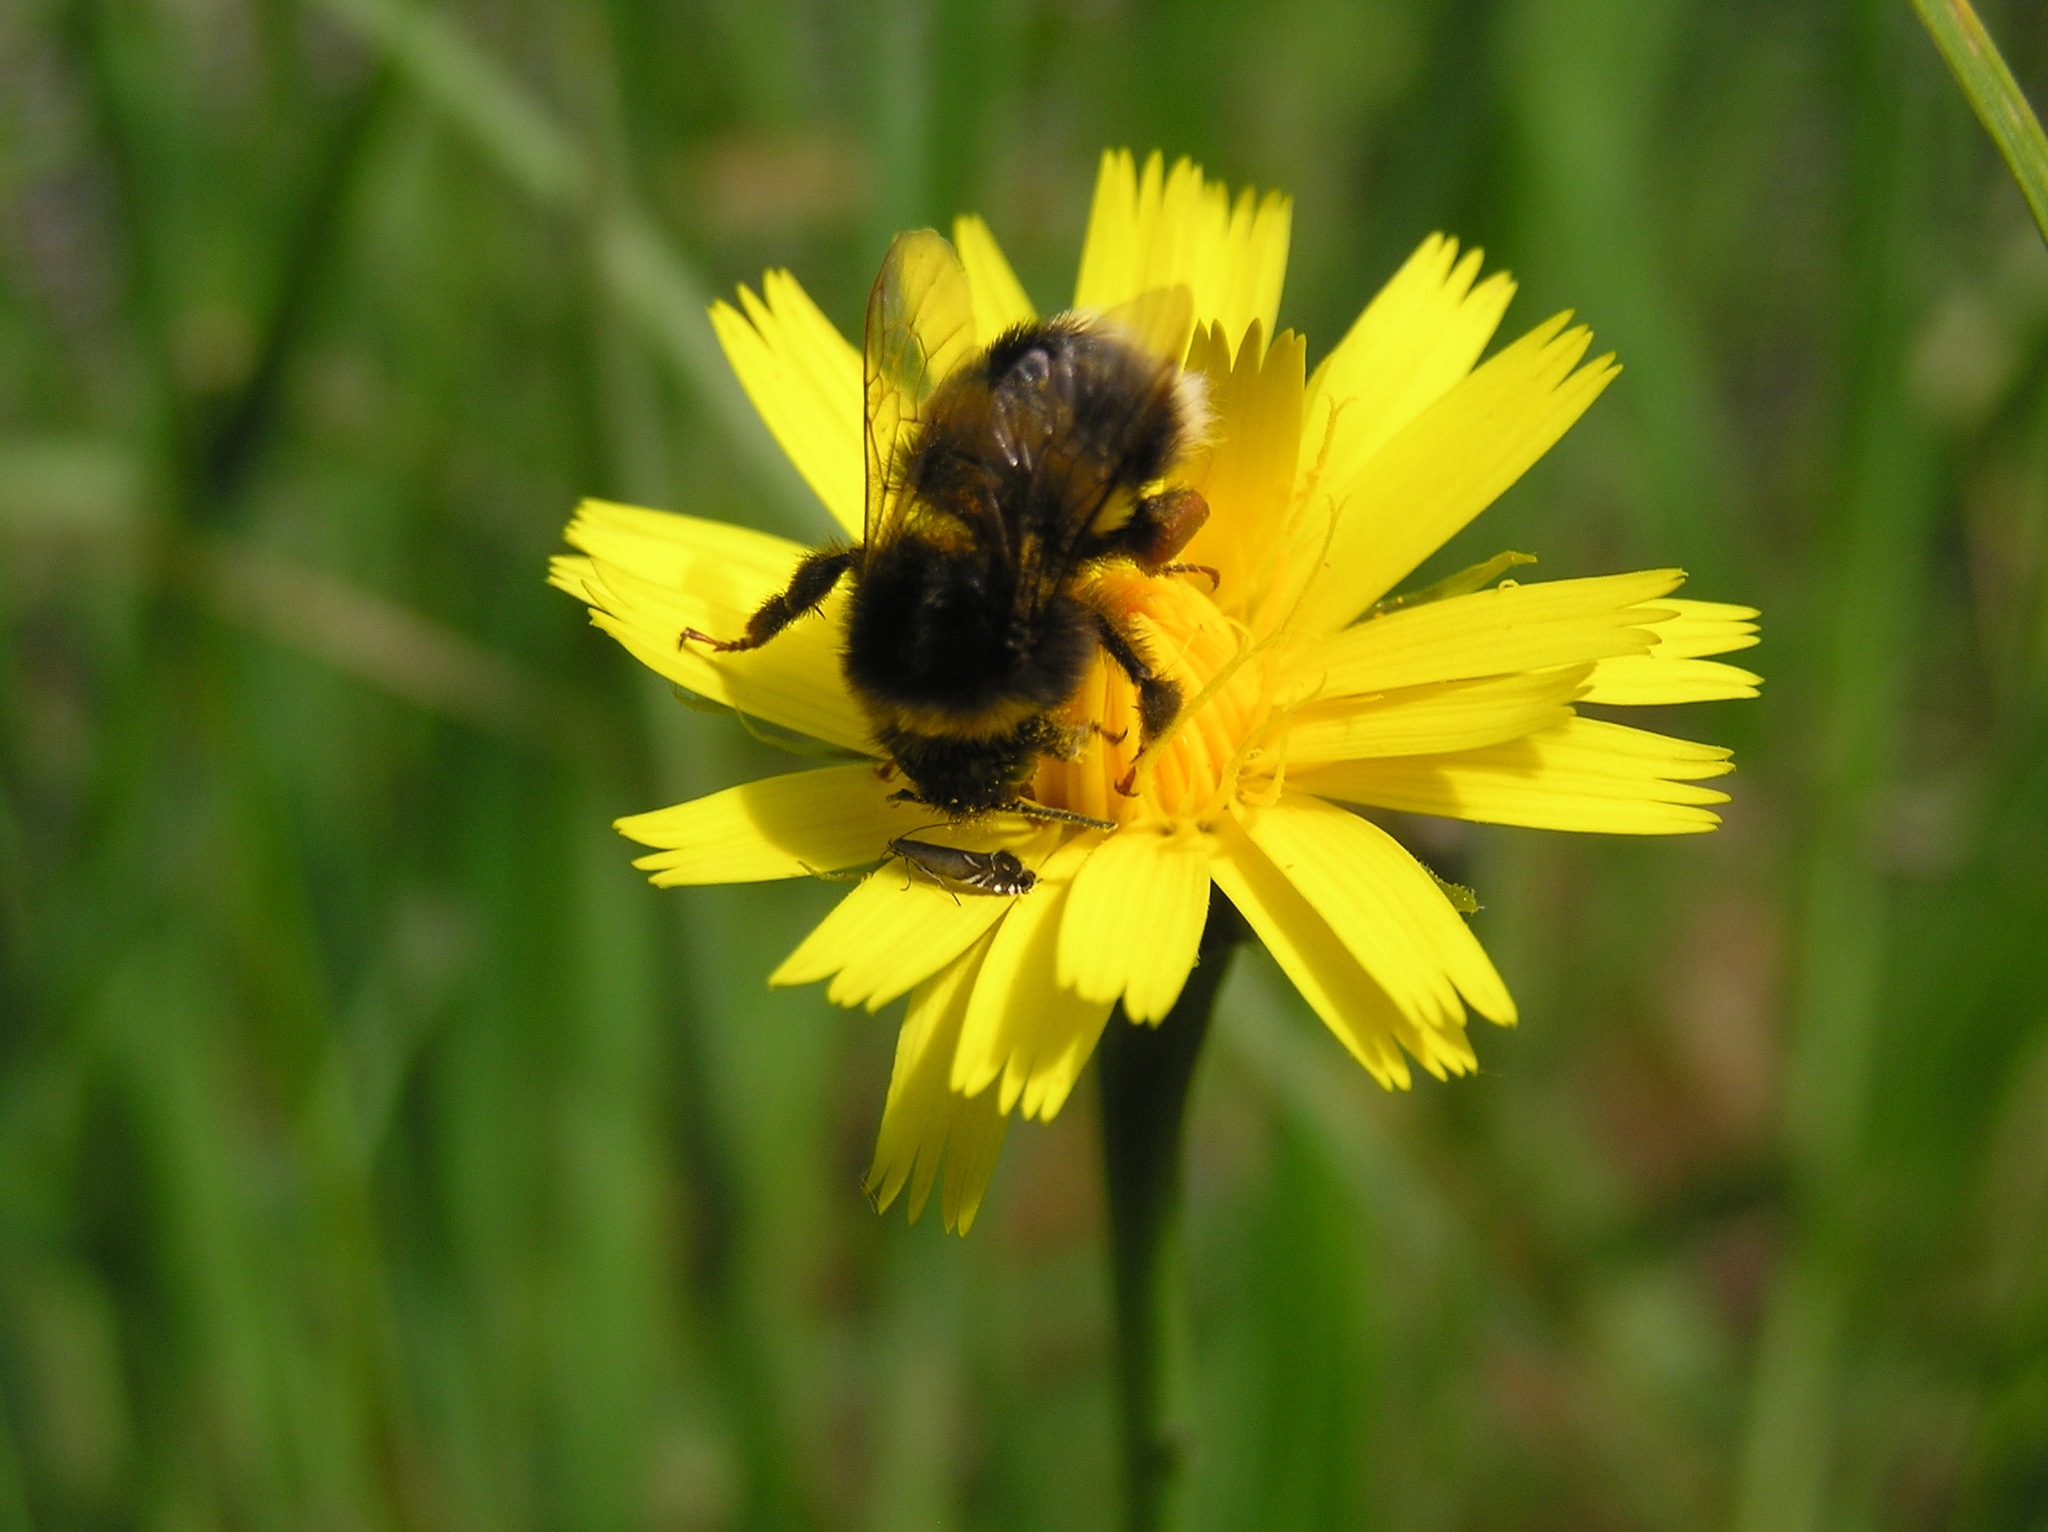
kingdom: Animalia
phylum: Arthropoda
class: Insecta
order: Hymenoptera
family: Apidae
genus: Bombus
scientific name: Bombus terrestris
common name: Buff-tailed bumblebee
